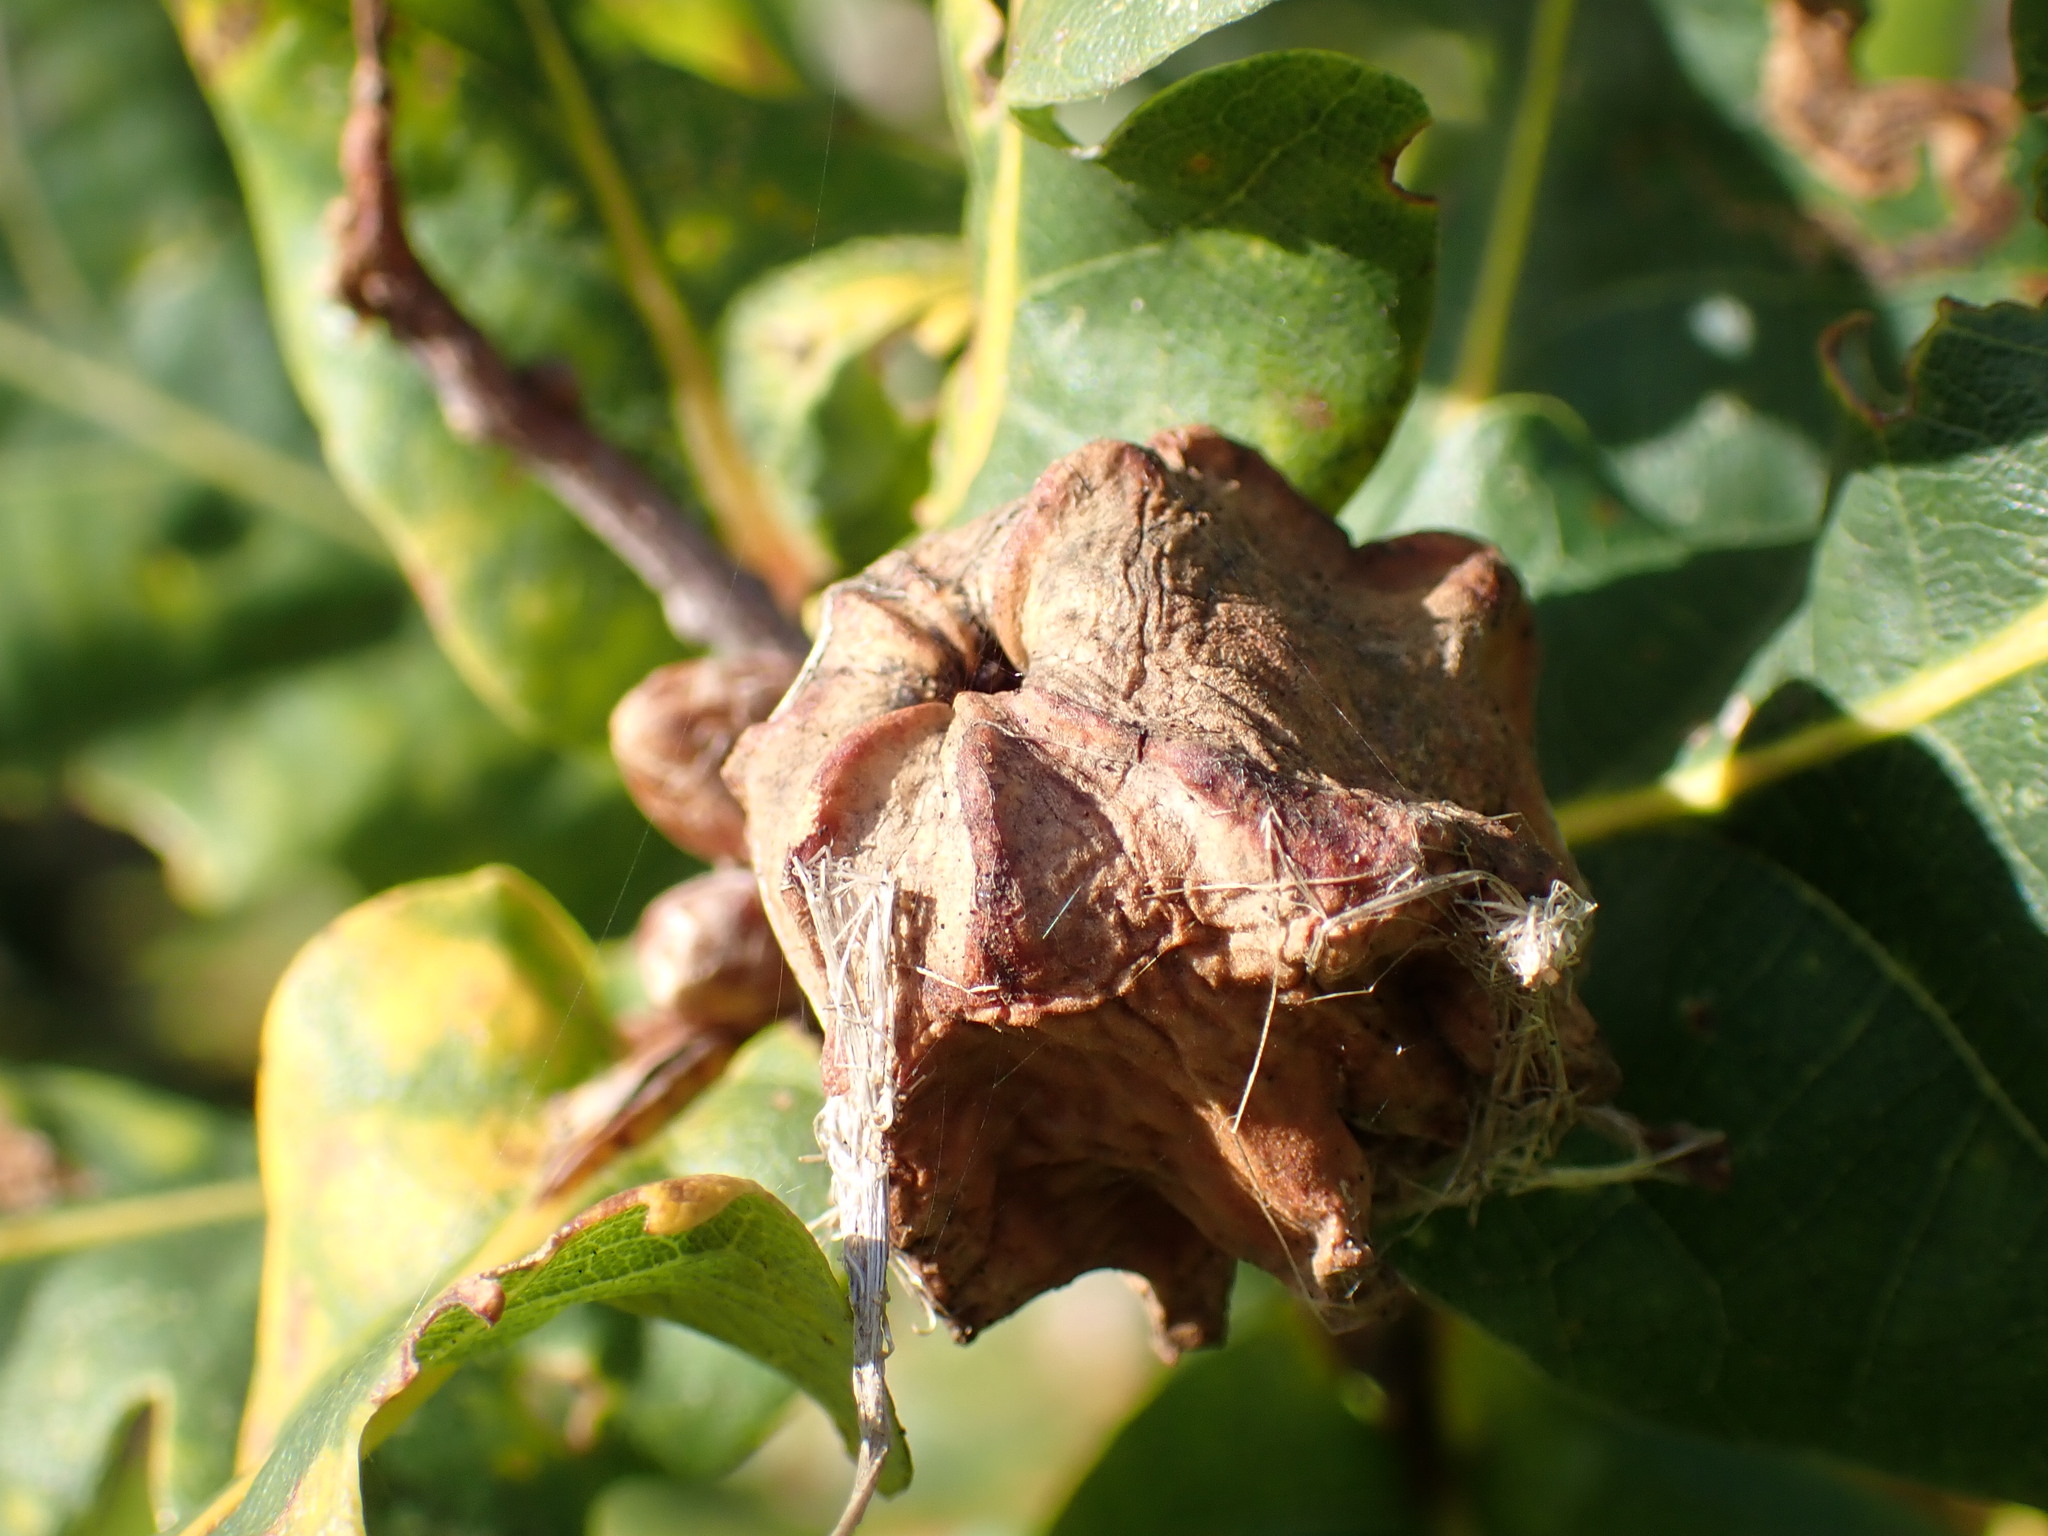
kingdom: Animalia
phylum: Arthropoda
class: Insecta
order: Hymenoptera
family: Cynipidae
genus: Andricus
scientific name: Andricus quercuscalicis
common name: Knopper gall
